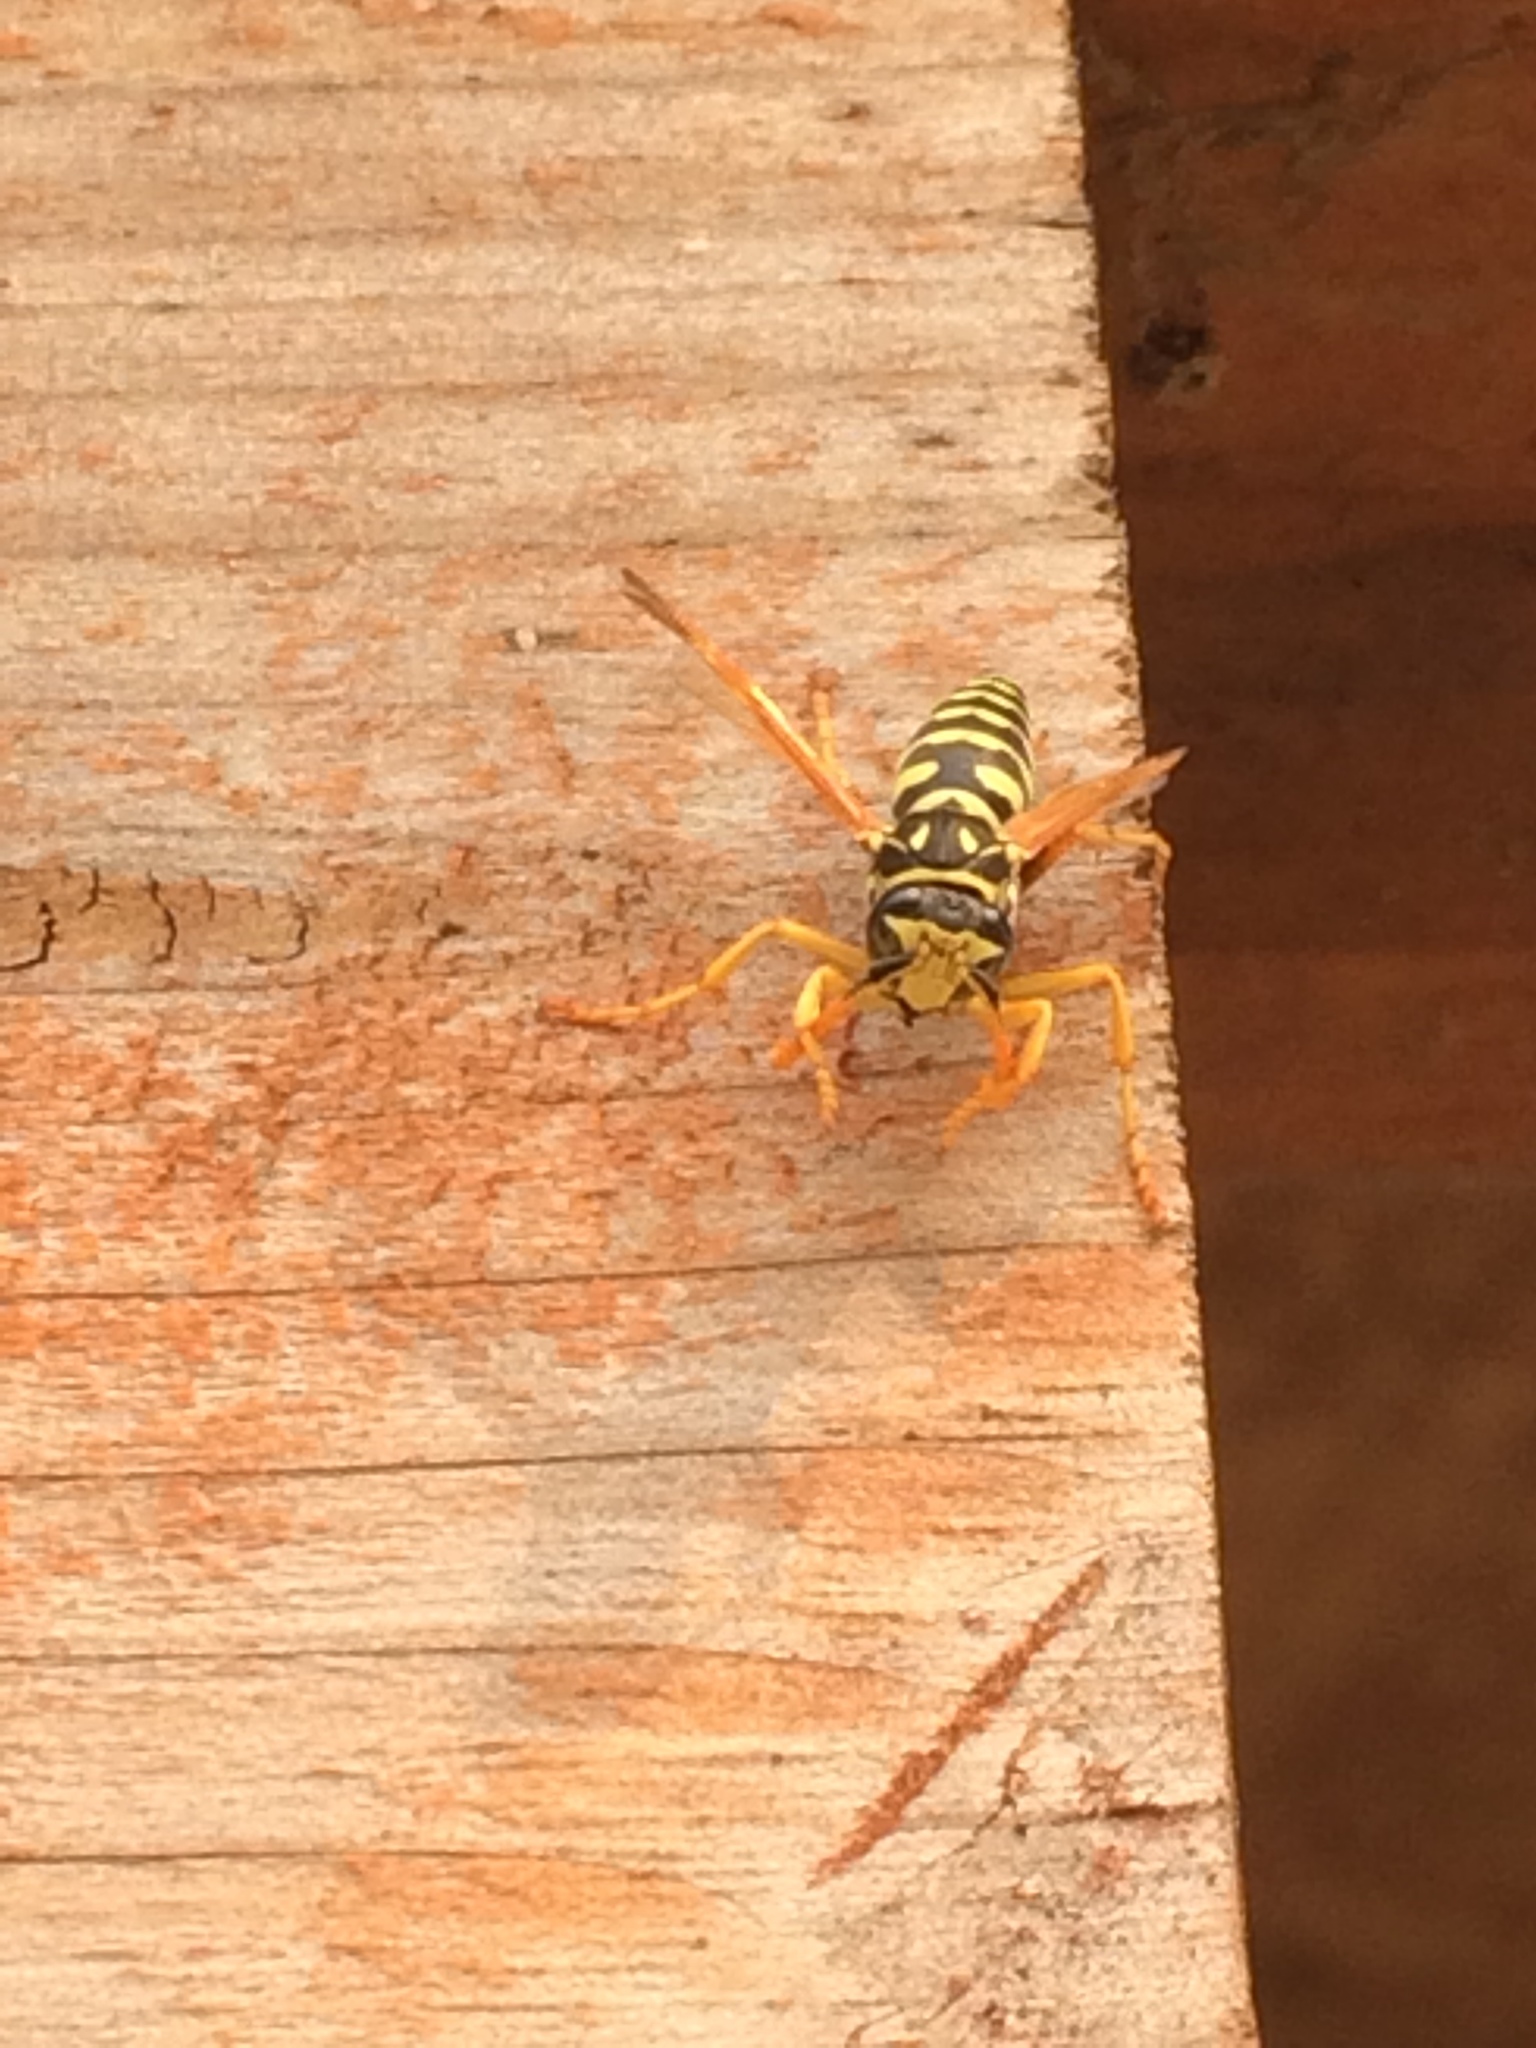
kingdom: Animalia
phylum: Arthropoda
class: Insecta
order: Hymenoptera
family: Eumenidae
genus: Polistes
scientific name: Polistes dominula
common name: Paper wasp
